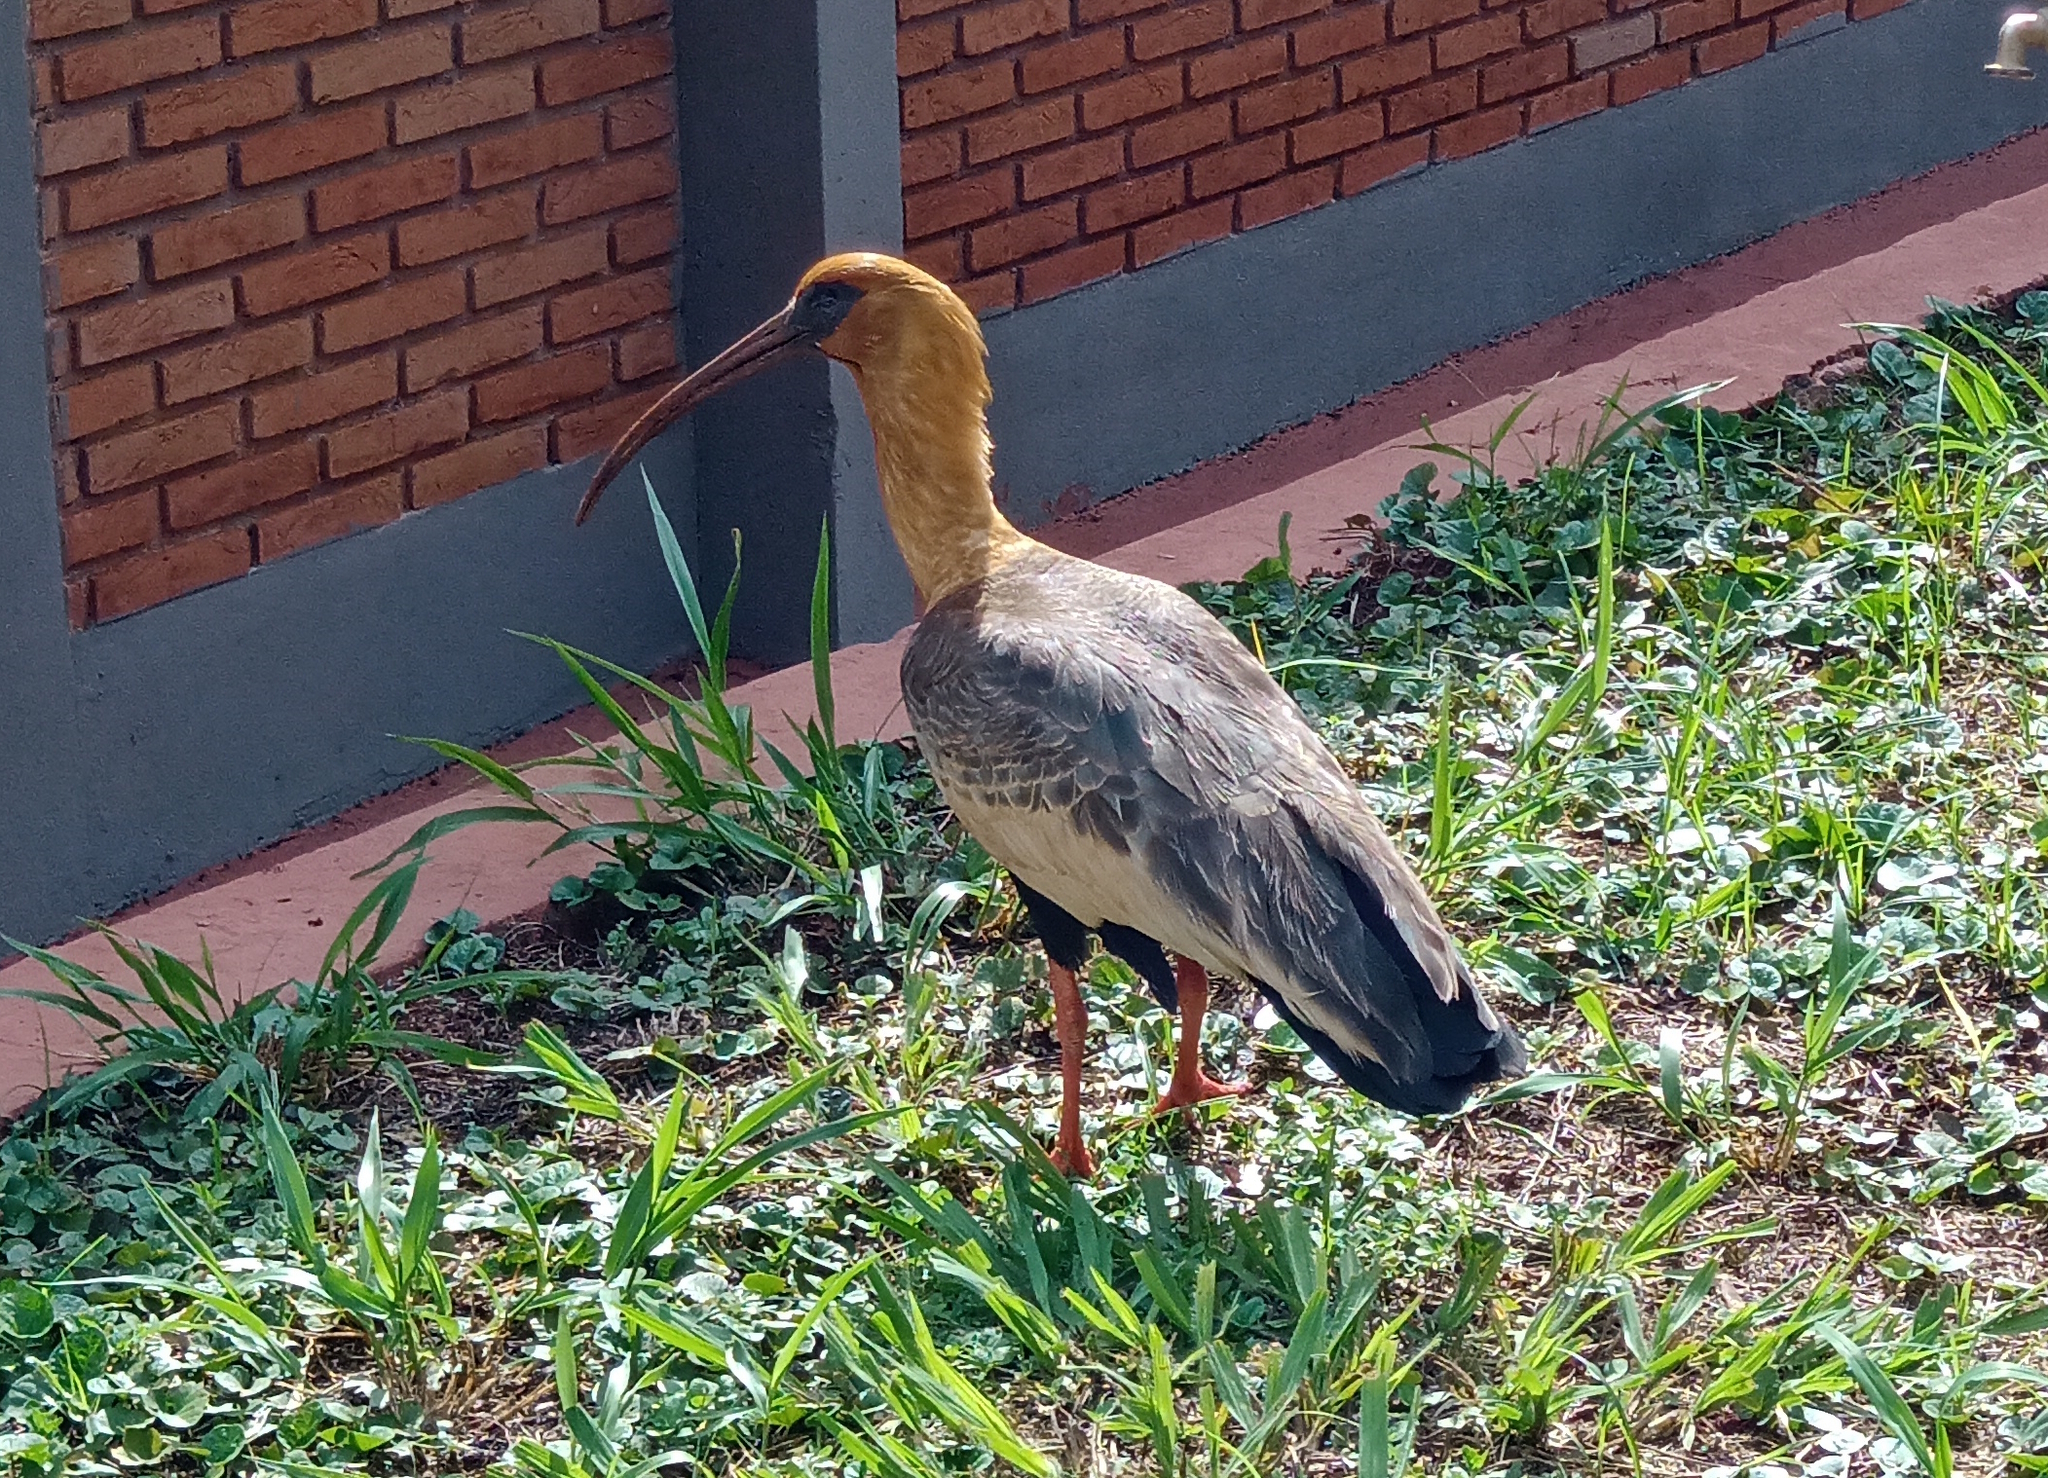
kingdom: Animalia
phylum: Chordata
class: Aves
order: Pelecaniformes
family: Threskiornithidae
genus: Theristicus
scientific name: Theristicus caudatus
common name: Buff-necked ibis
